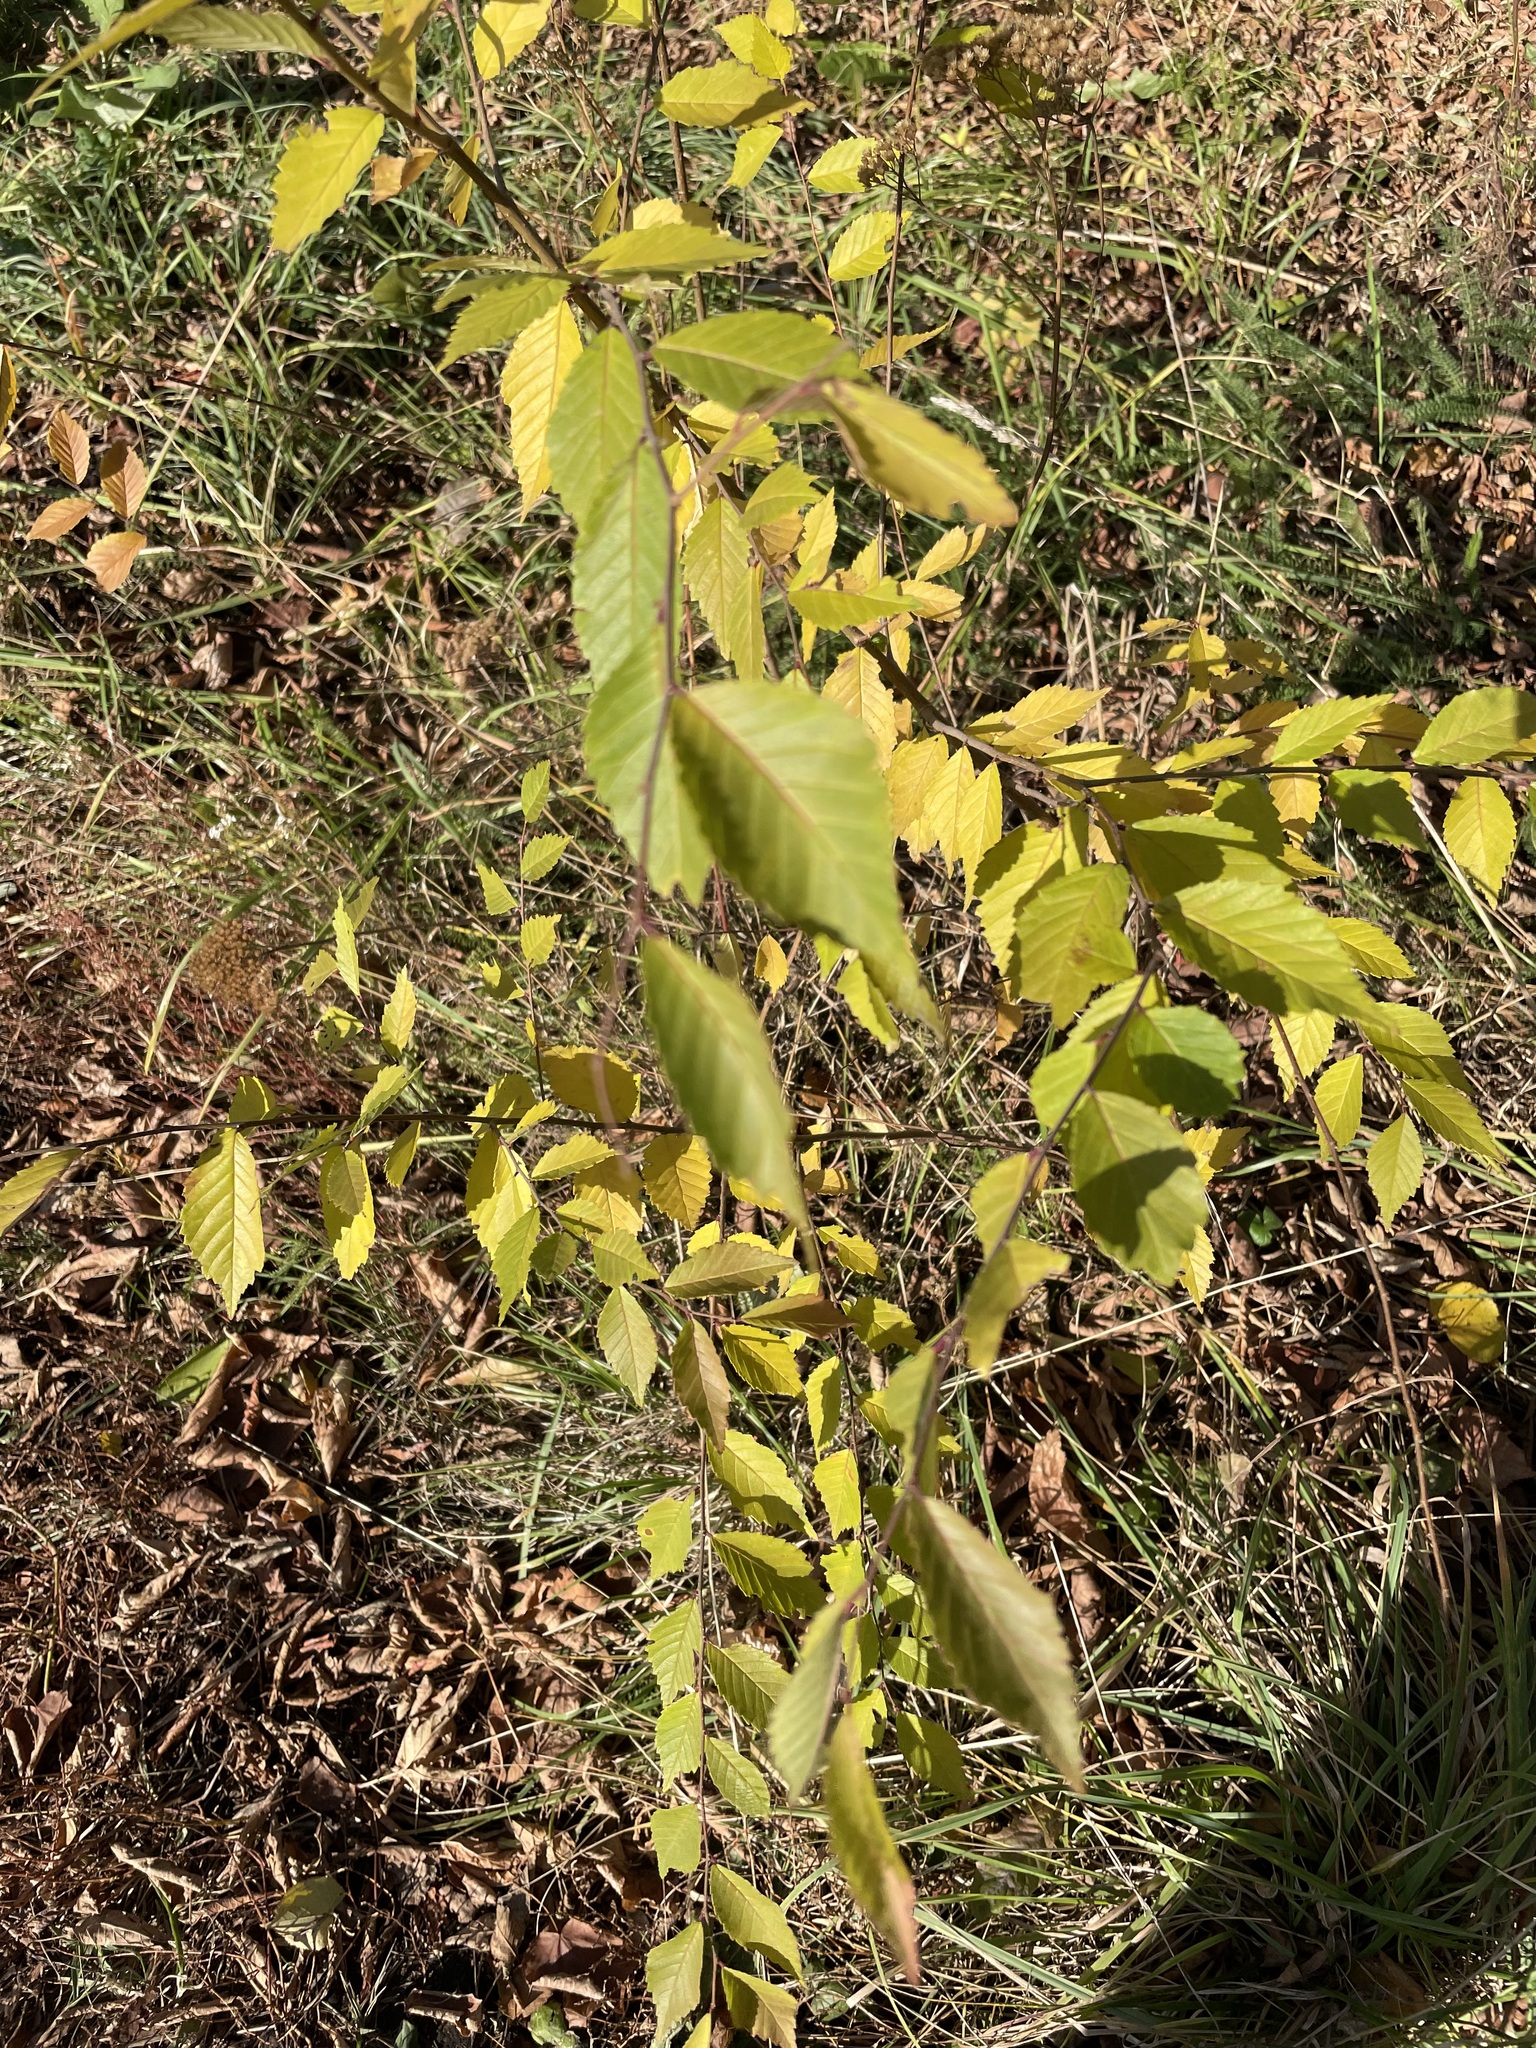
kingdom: Plantae
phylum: Tracheophyta
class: Magnoliopsida
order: Rosales
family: Ulmaceae
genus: Ulmus
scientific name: Ulmus pumila
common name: Siberian elm
